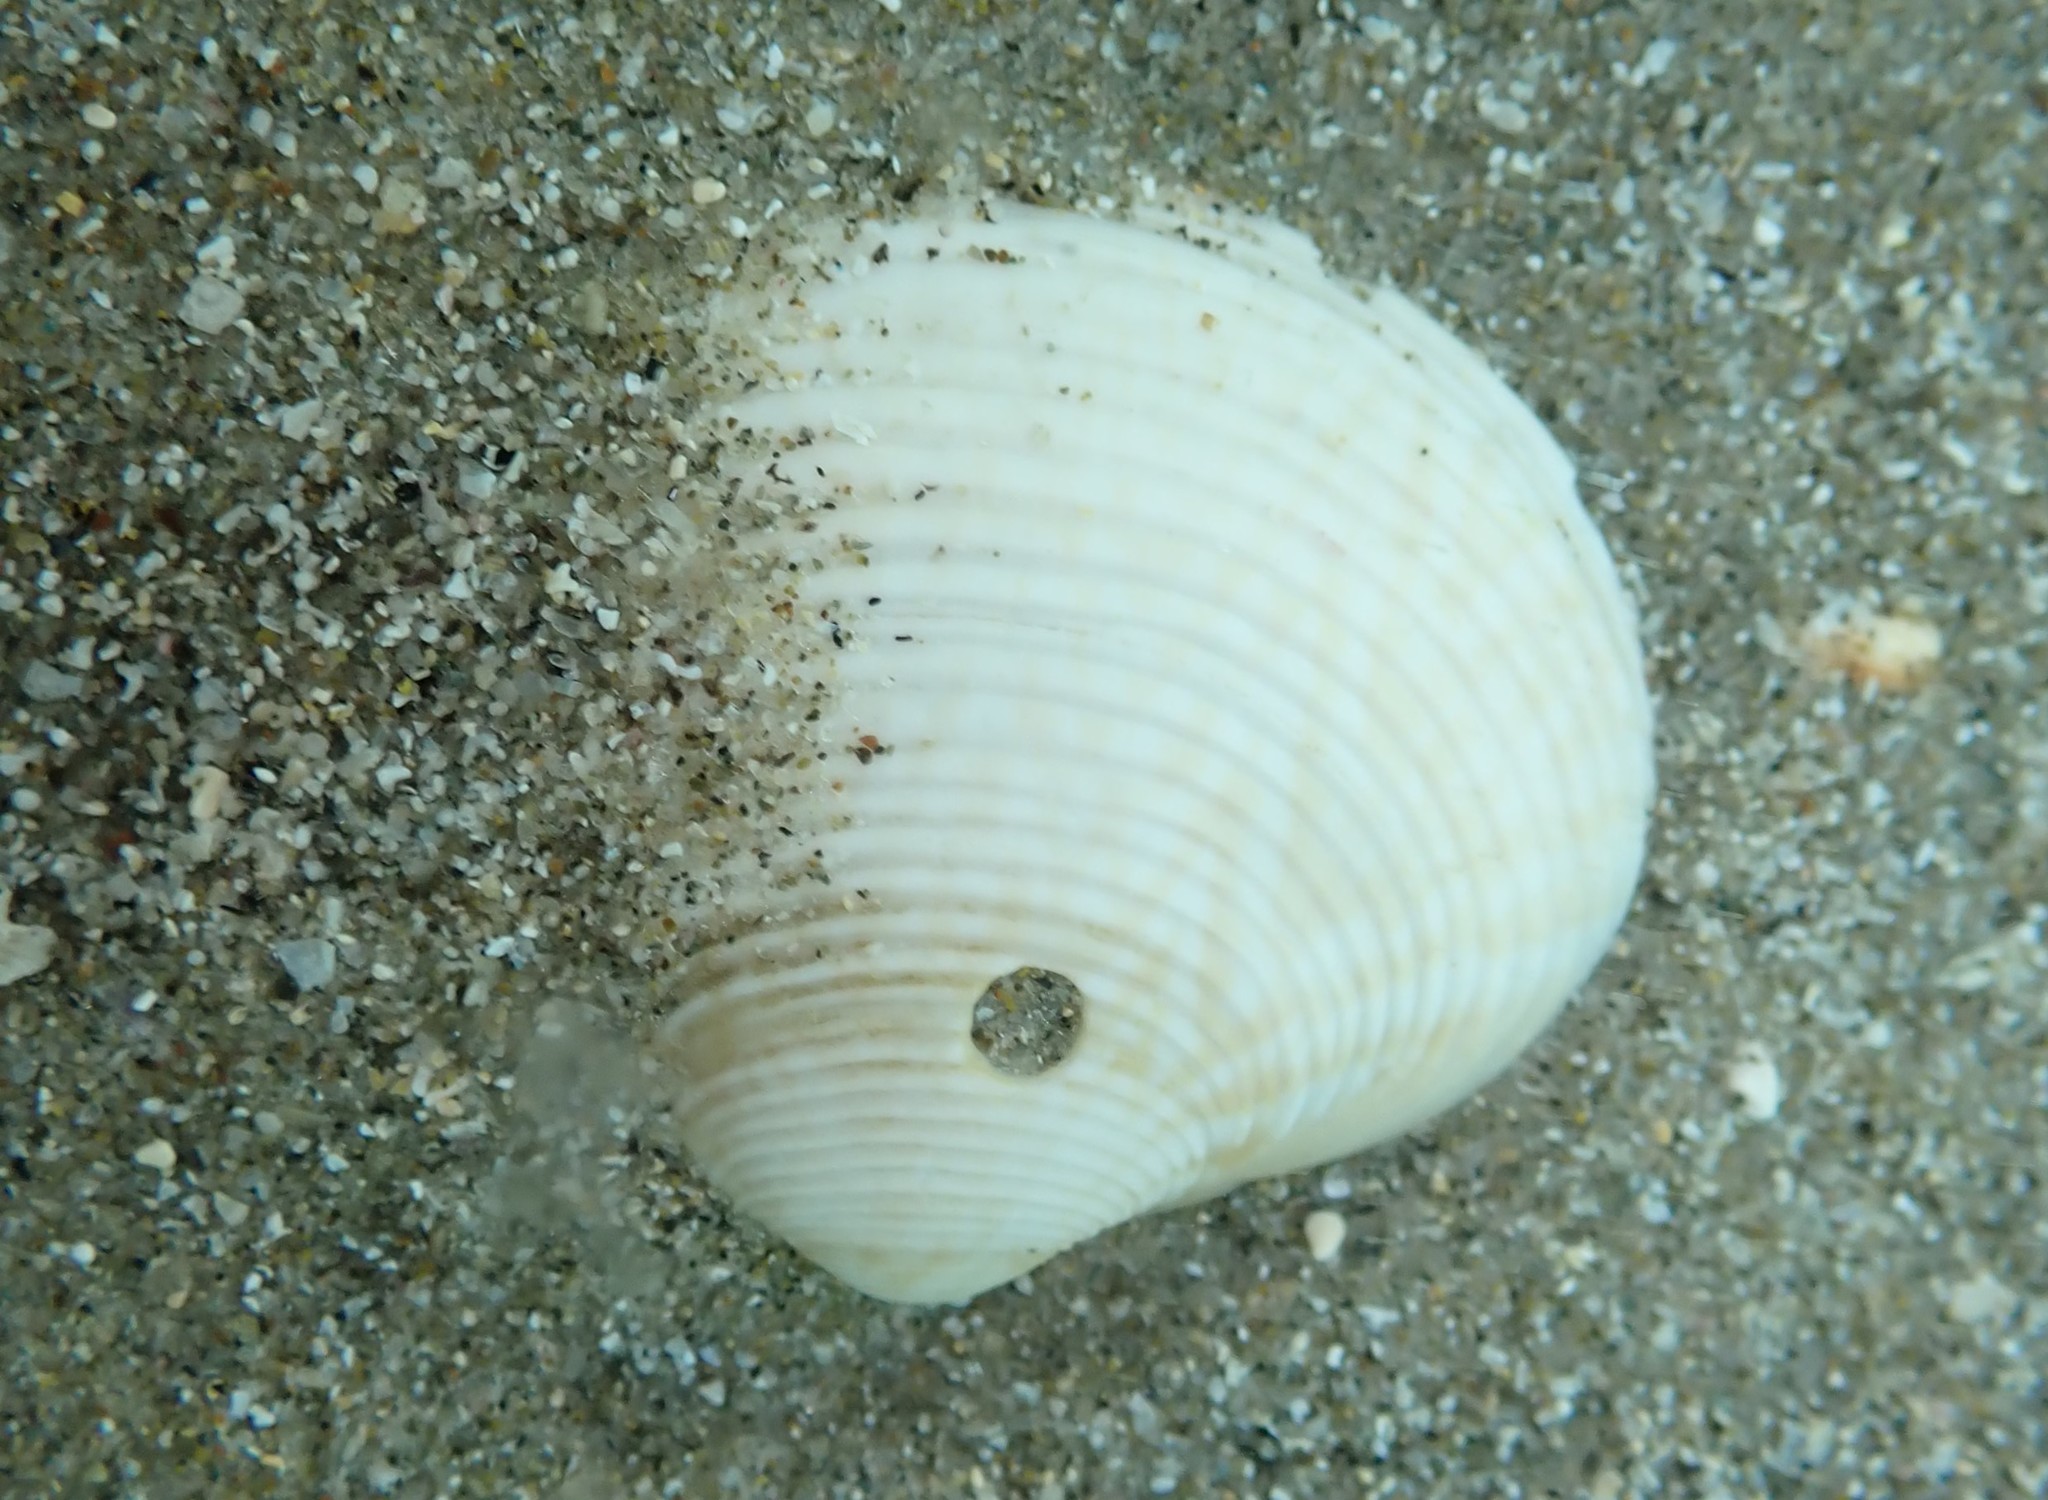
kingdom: Animalia
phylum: Mollusca
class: Bivalvia
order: Venerida
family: Veneridae
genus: Tawera
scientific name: Tawera spissa
